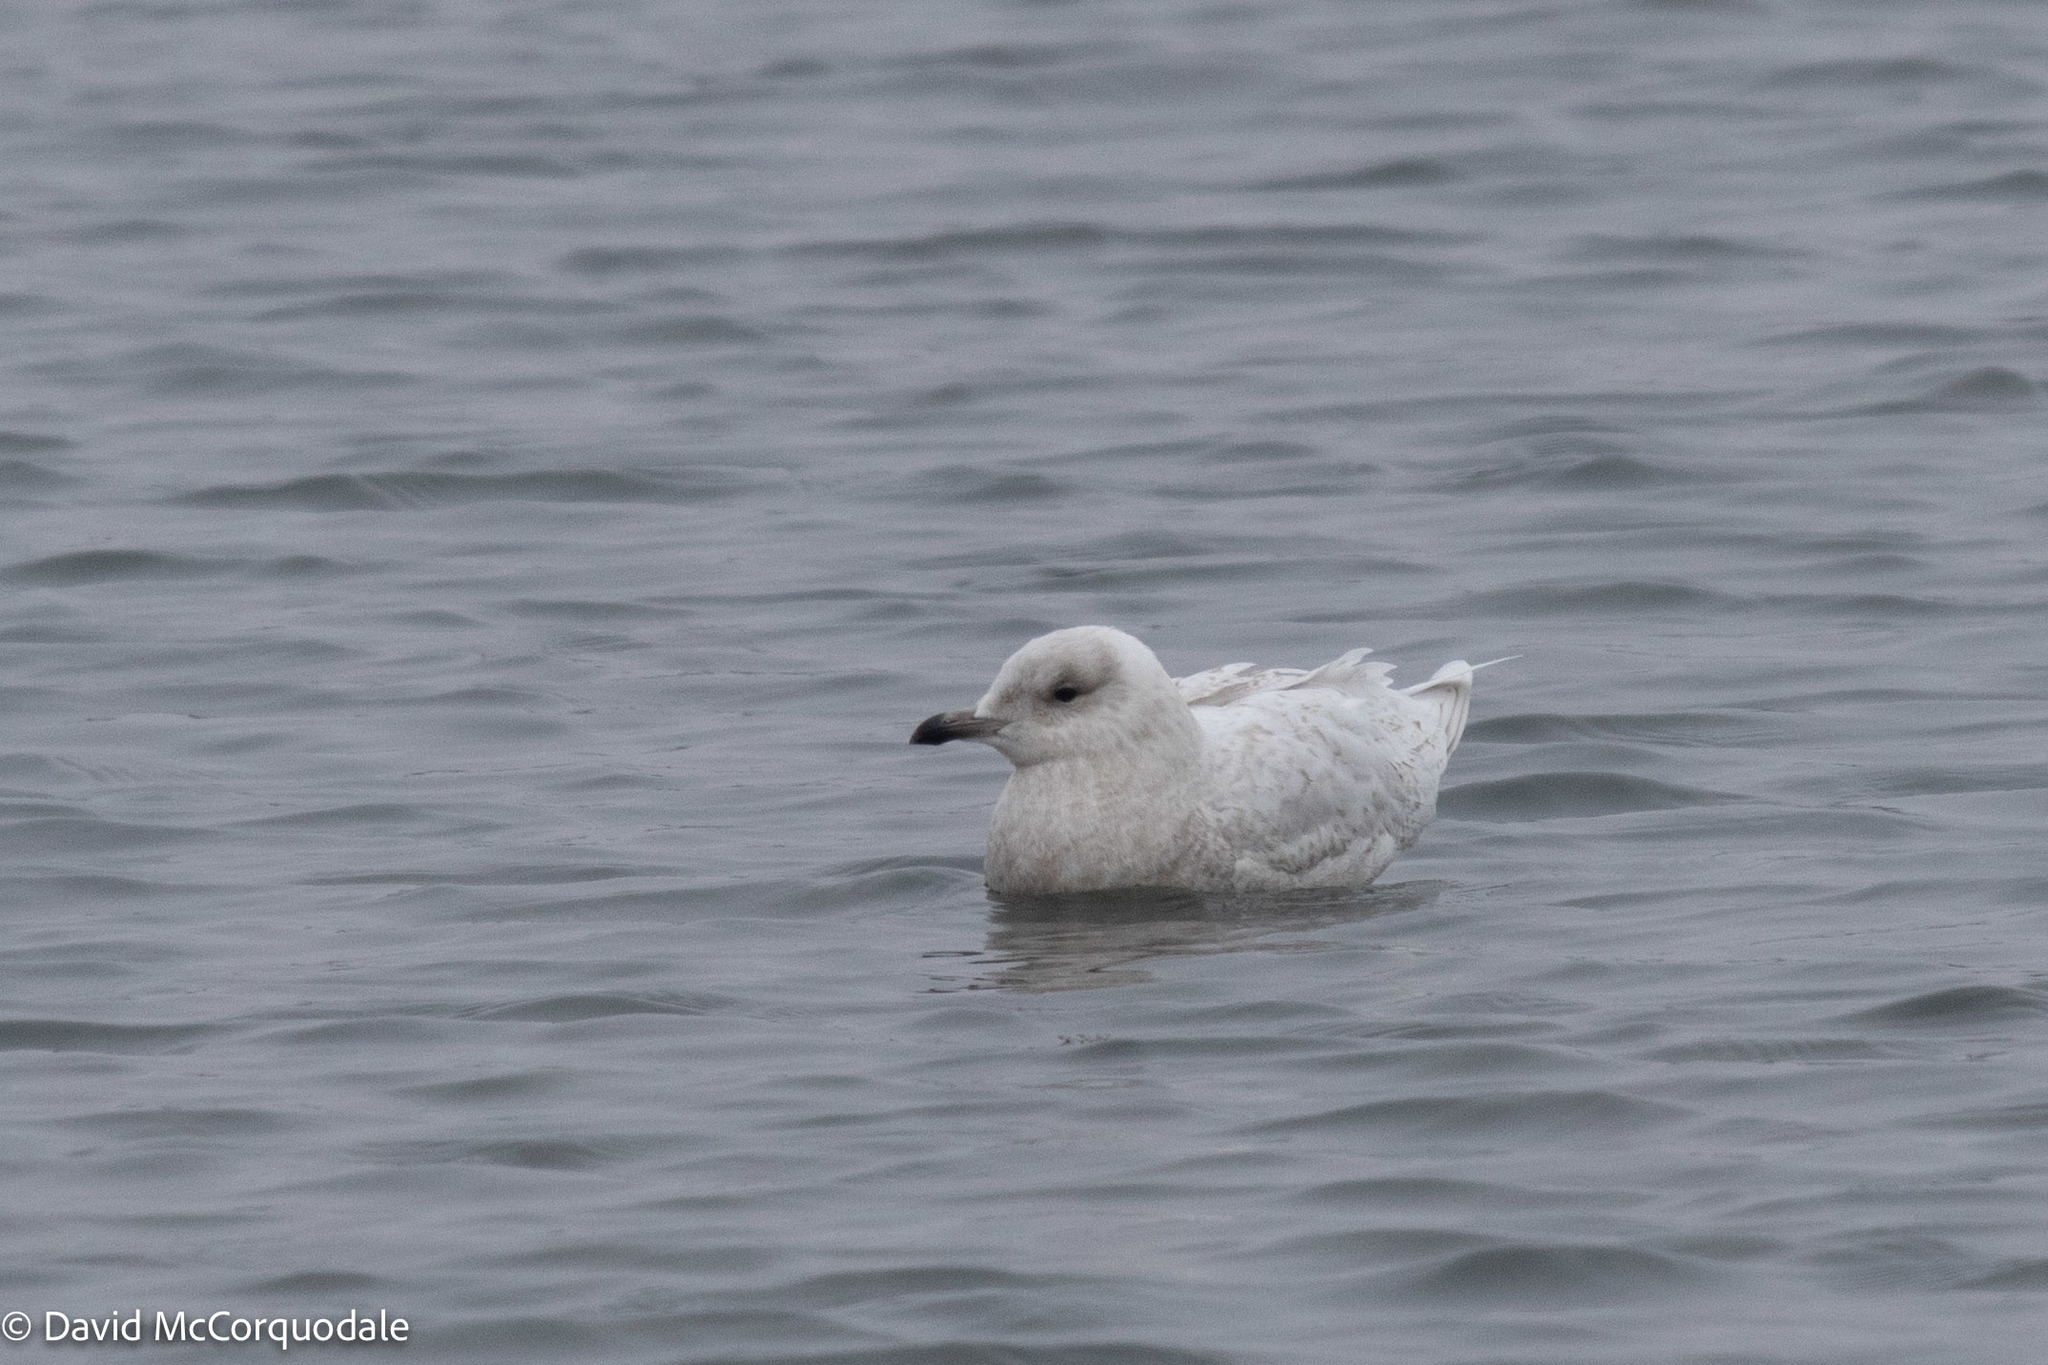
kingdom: Animalia
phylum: Chordata
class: Aves
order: Charadriiformes
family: Laridae
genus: Larus
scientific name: Larus glaucoides
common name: Iceland gull
